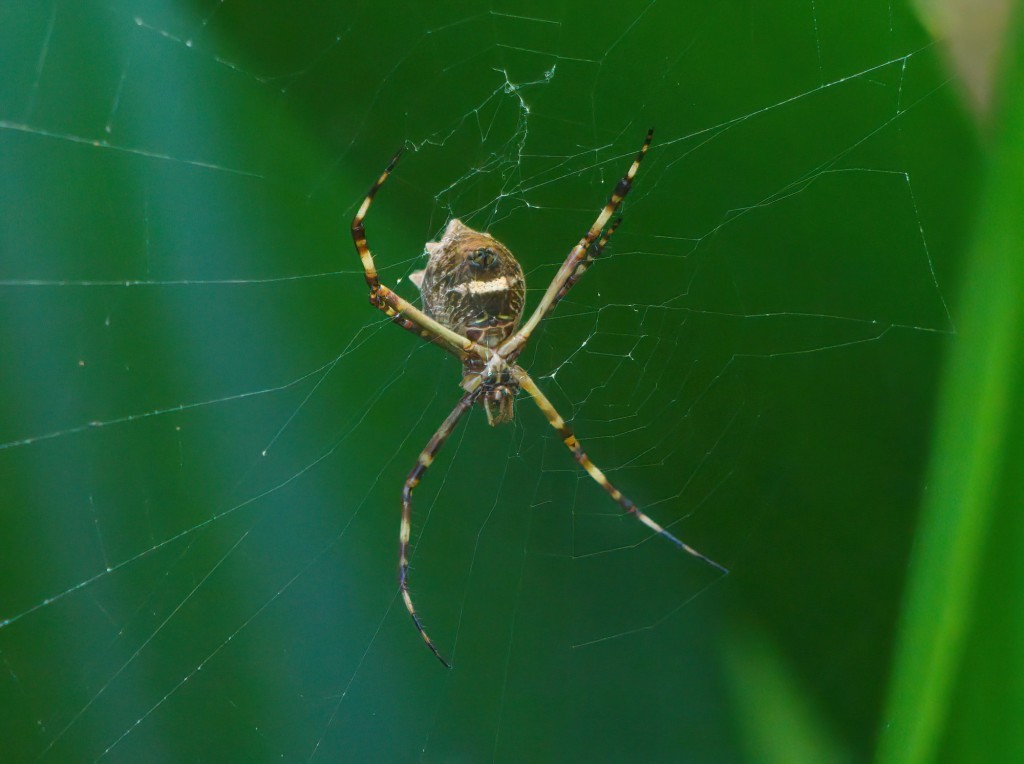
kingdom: Animalia
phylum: Arthropoda
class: Arachnida
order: Araneae
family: Araneidae
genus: Argiope
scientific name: Argiope argentata
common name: Orb weavers
